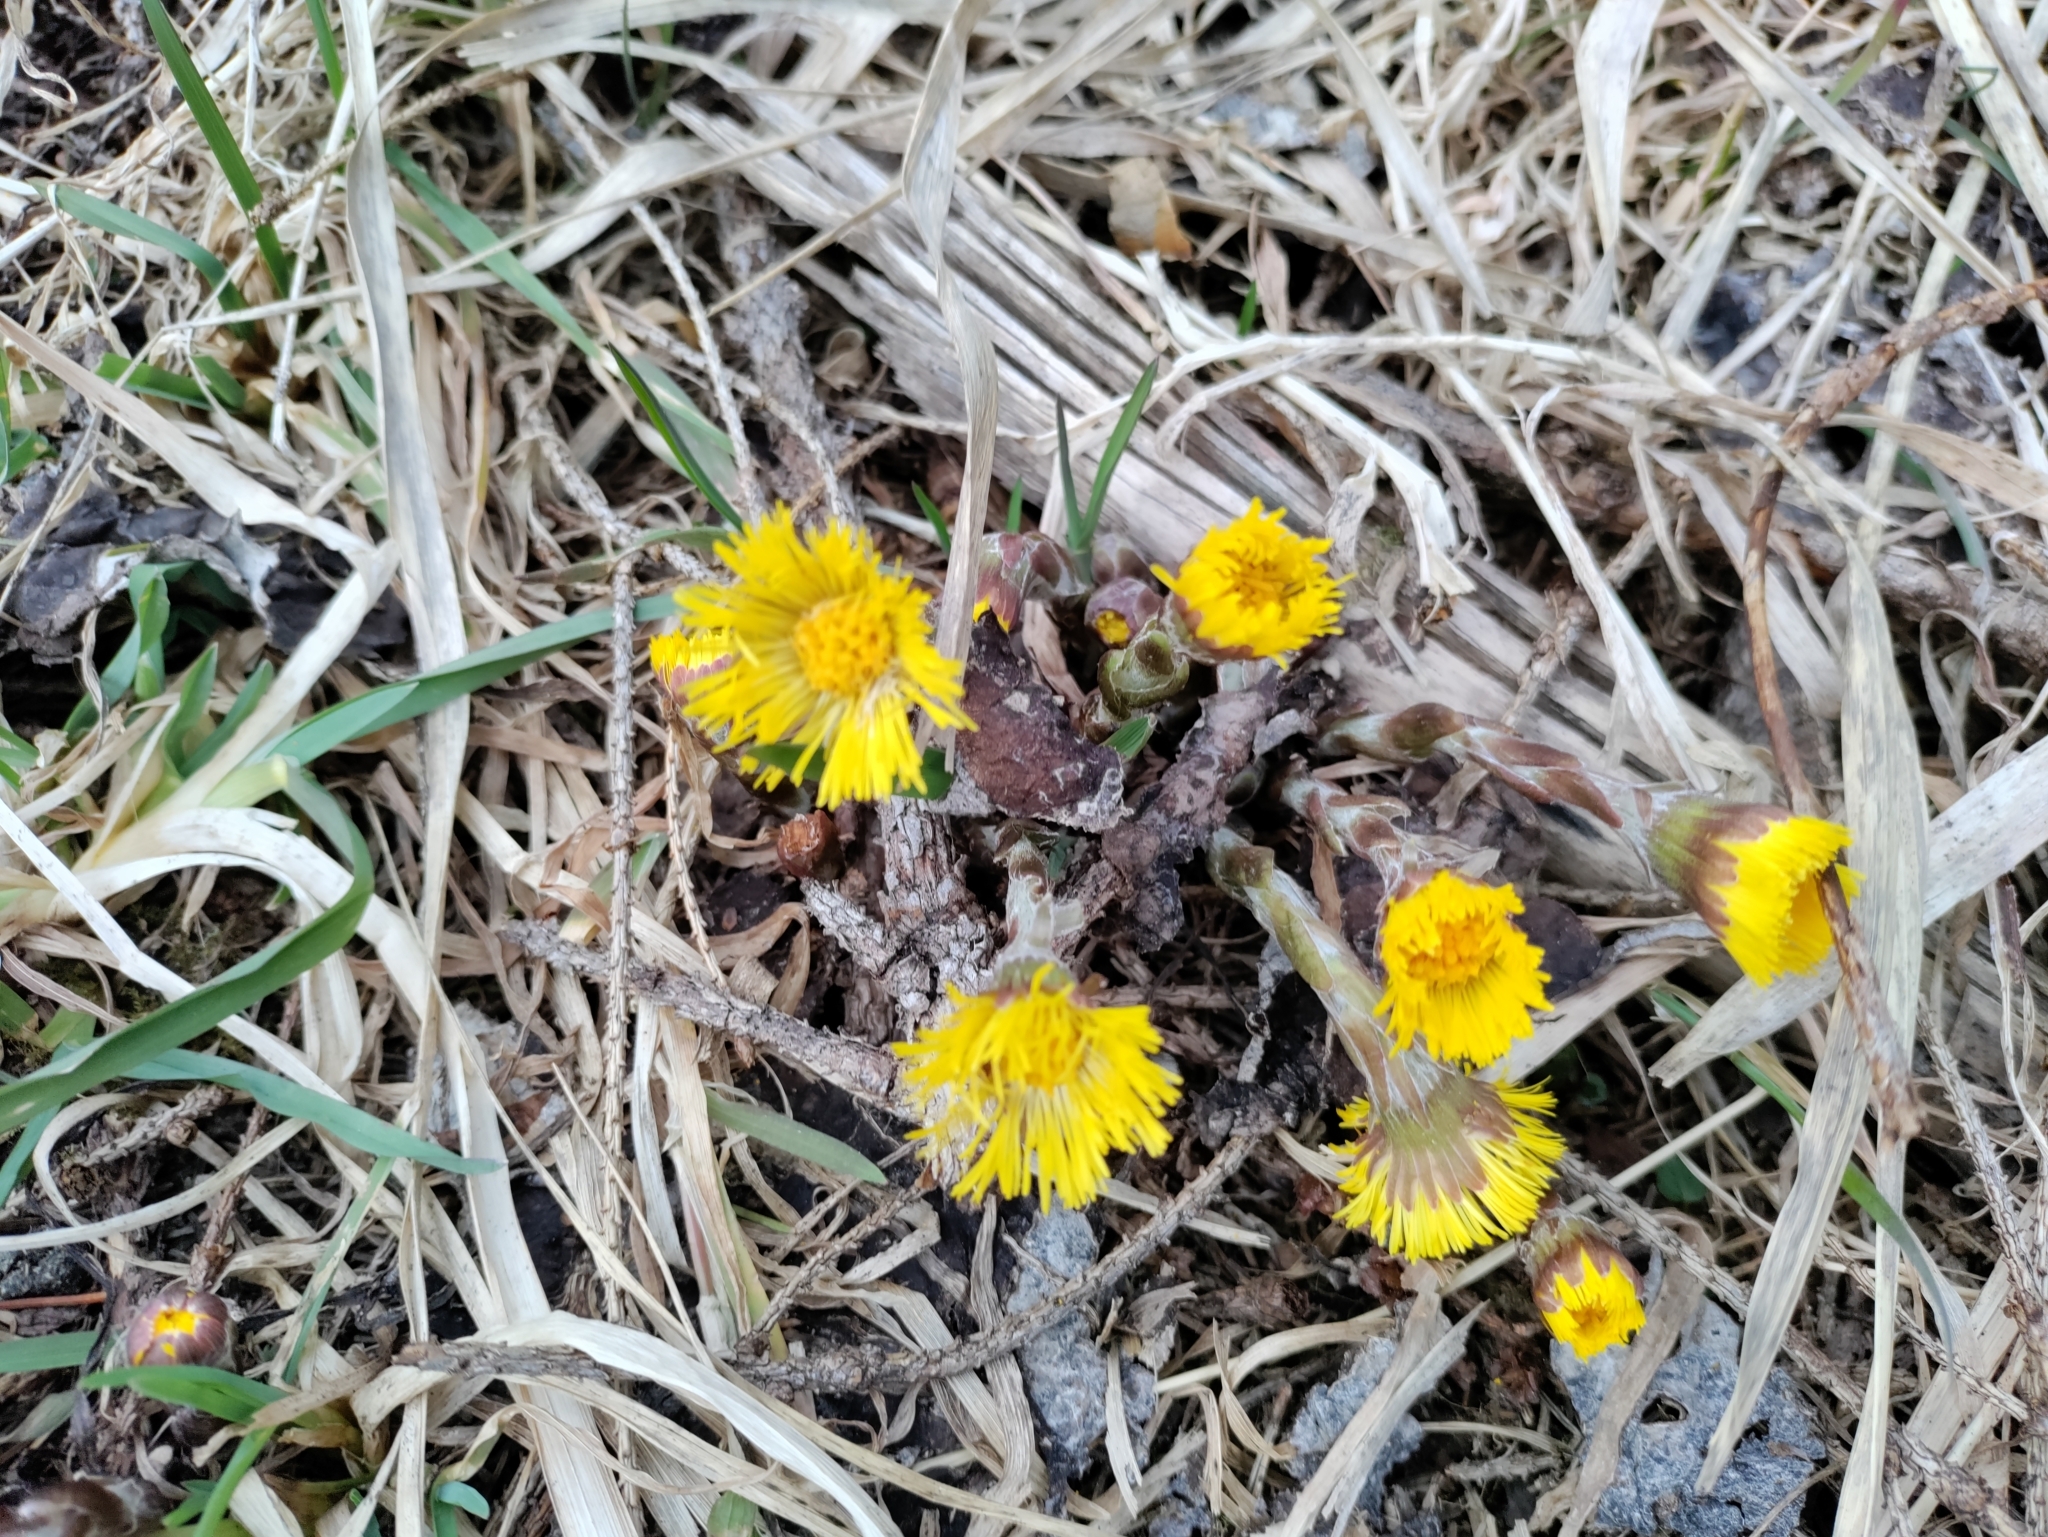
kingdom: Plantae
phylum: Tracheophyta
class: Magnoliopsida
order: Asterales
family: Asteraceae
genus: Tussilago
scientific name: Tussilago farfara
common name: Coltsfoot
